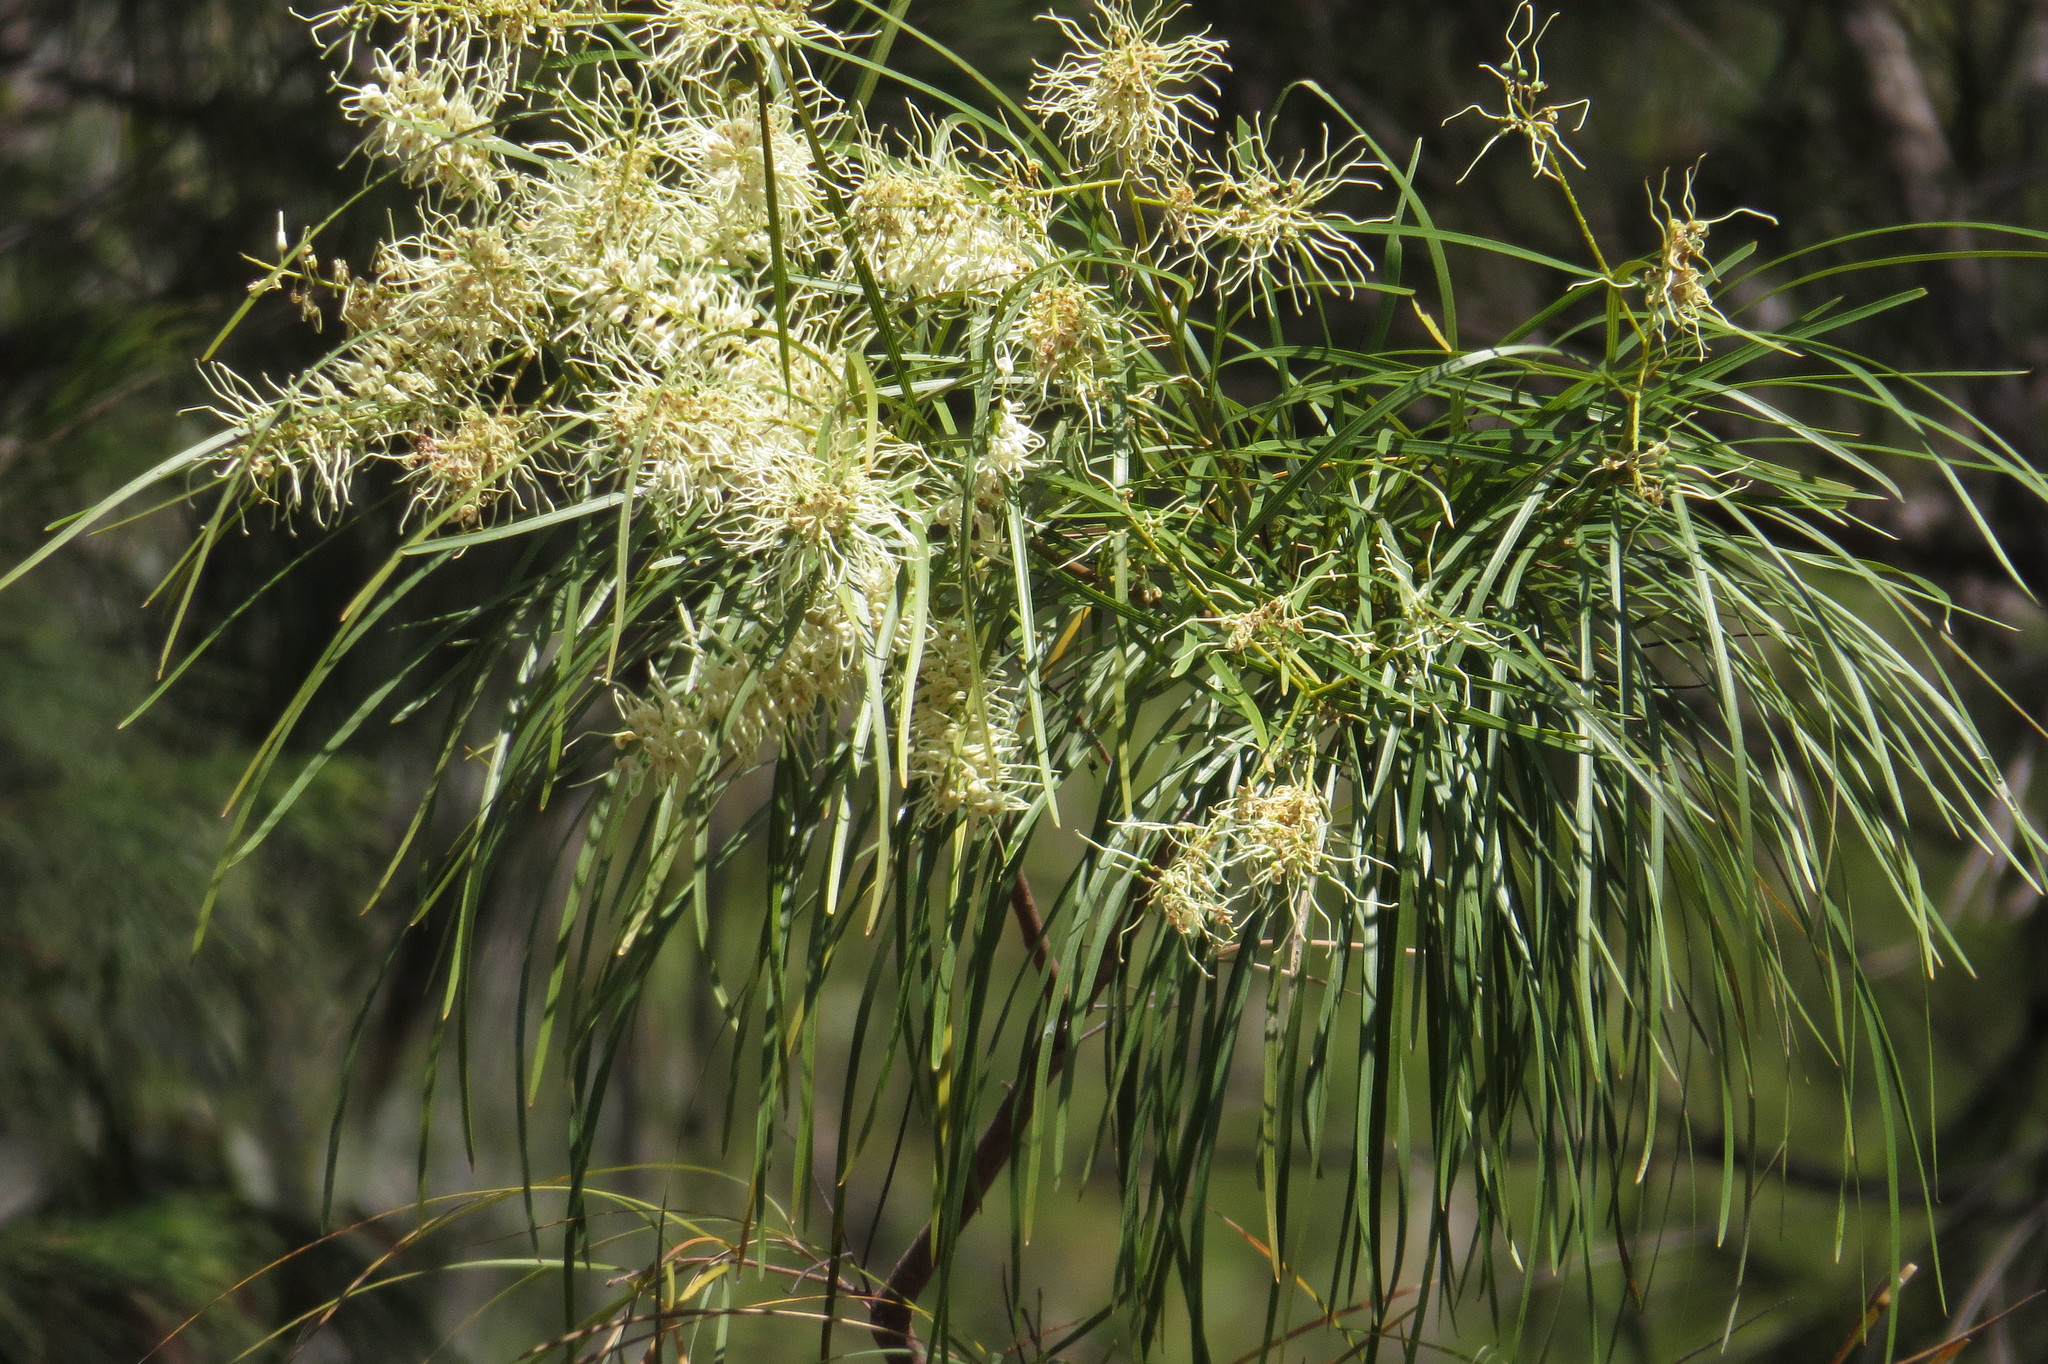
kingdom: Plantae
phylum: Tracheophyta
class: Magnoliopsida
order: Proteales
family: Proteaceae
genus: Grevillea
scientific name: Grevillea parallela
